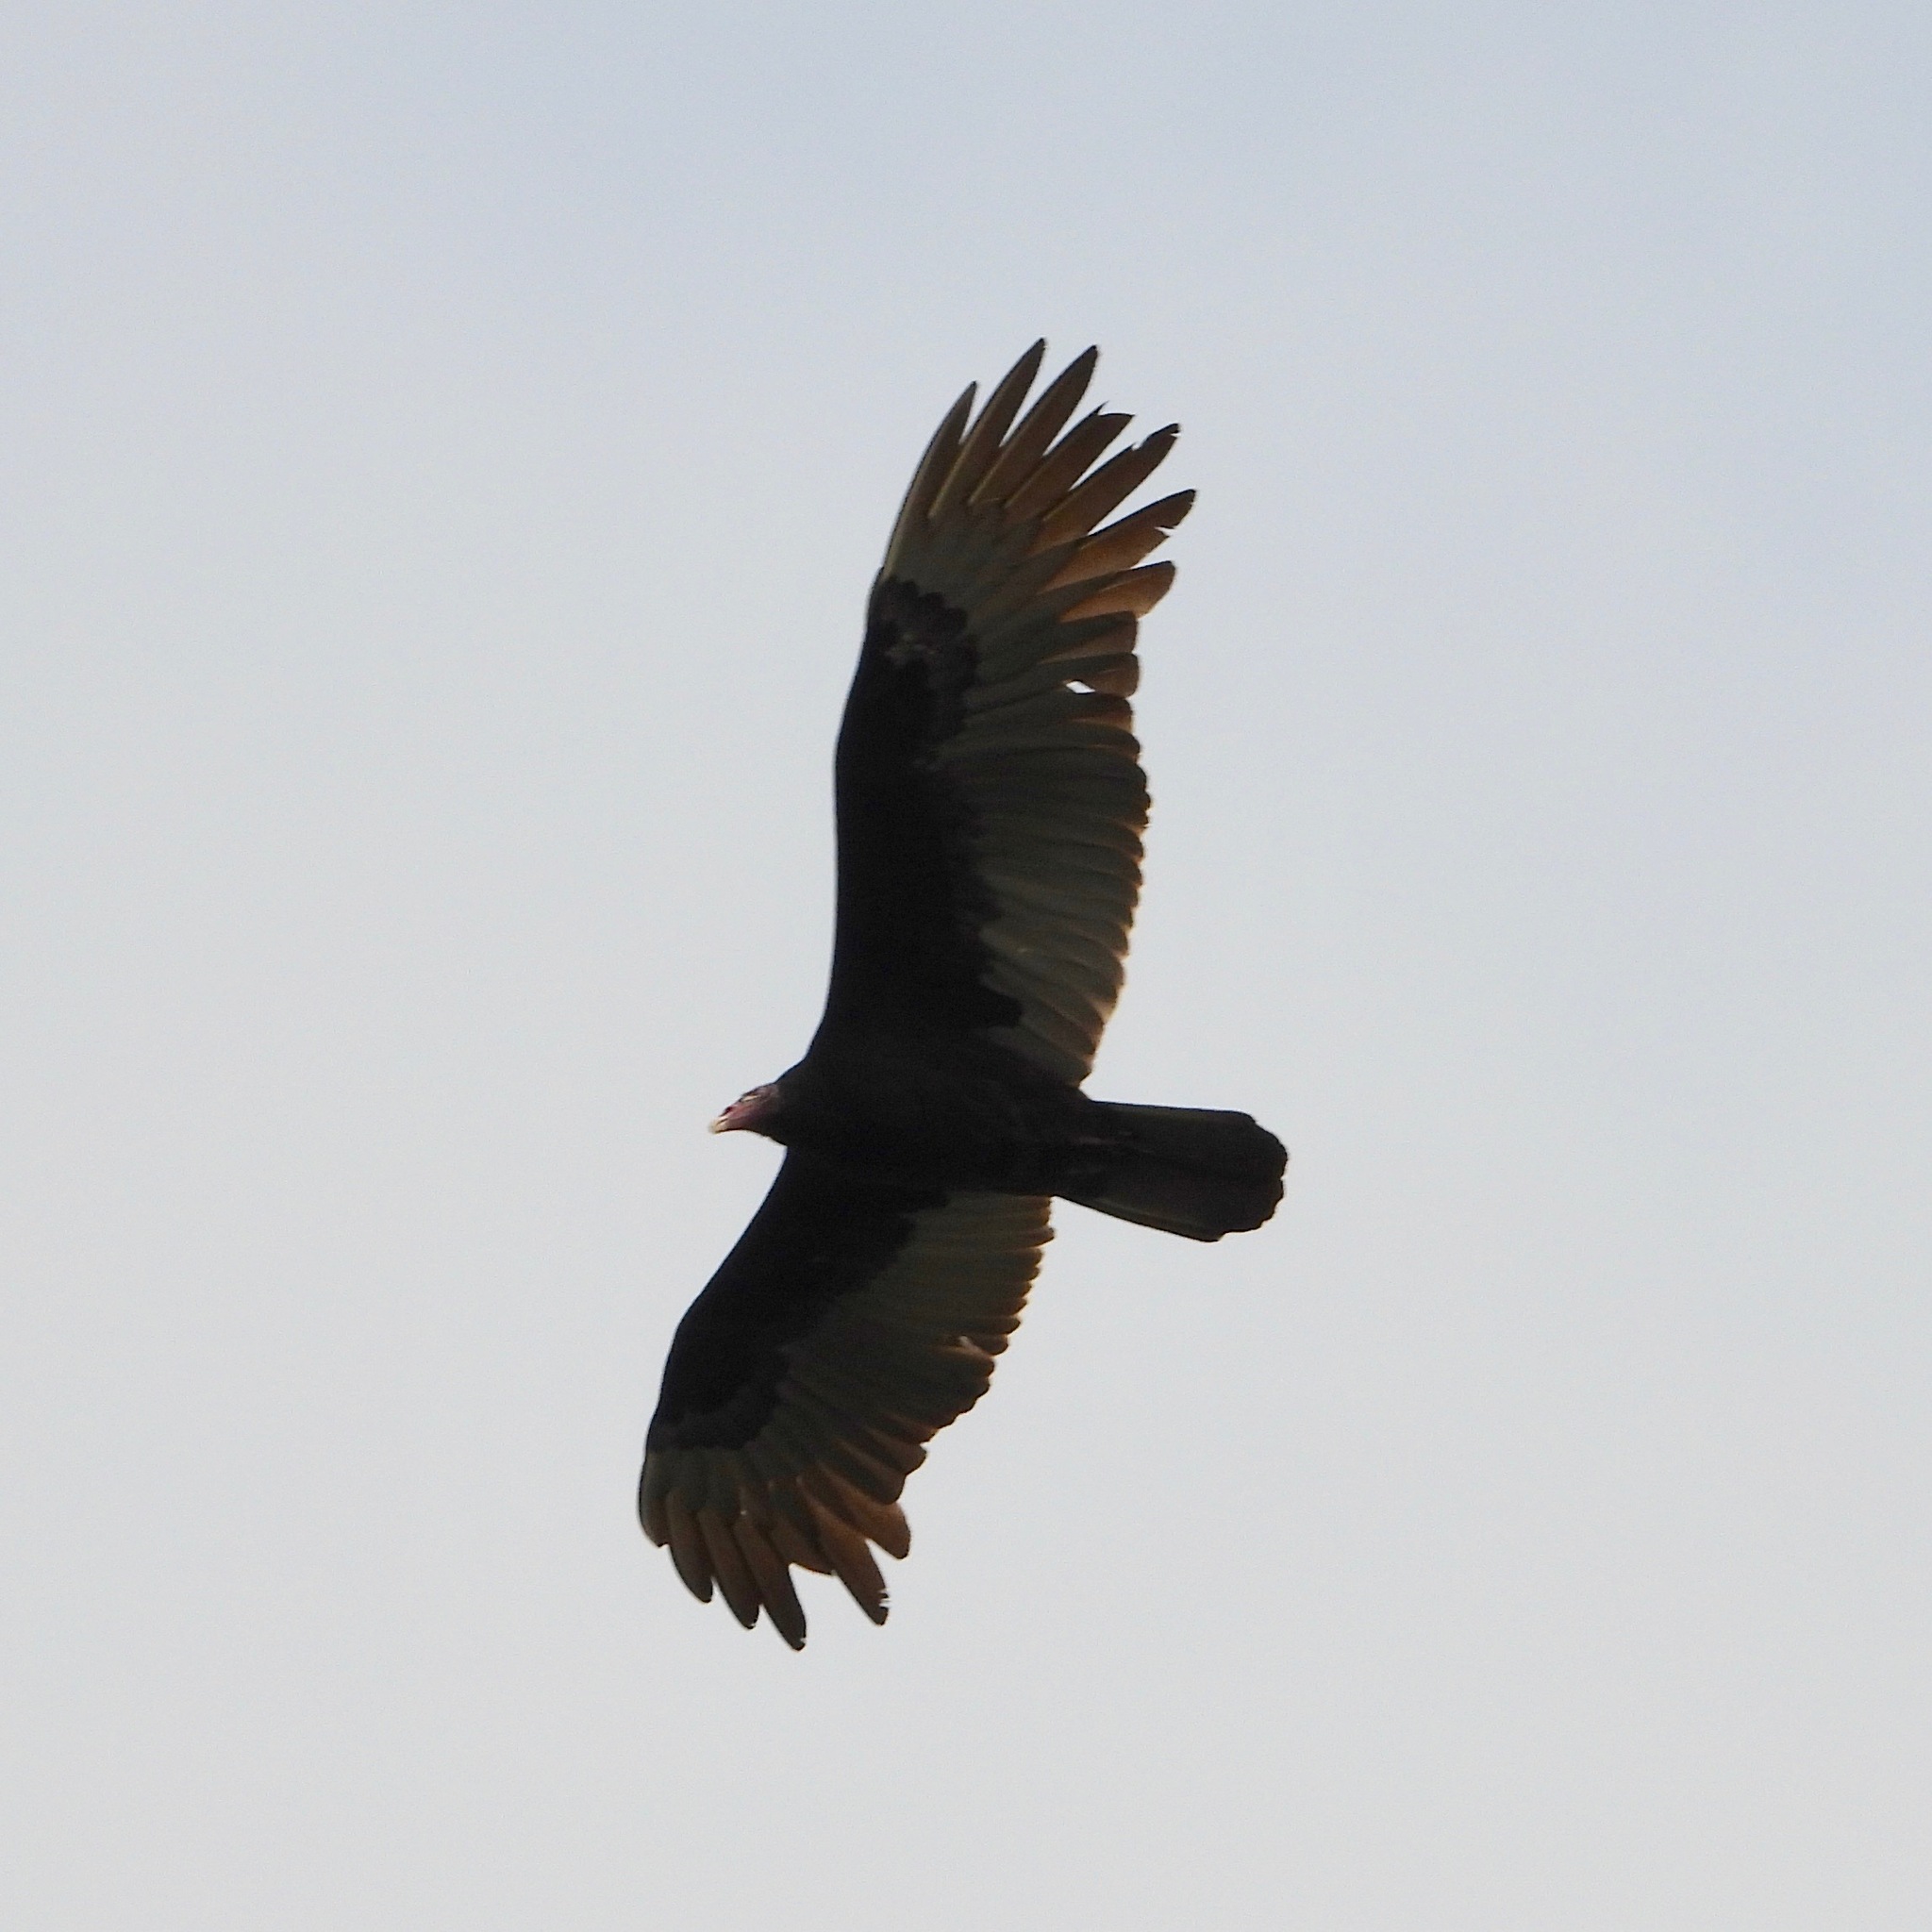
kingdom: Animalia
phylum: Chordata
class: Aves
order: Accipitriformes
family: Cathartidae
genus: Cathartes
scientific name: Cathartes aura
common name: Turkey vulture
